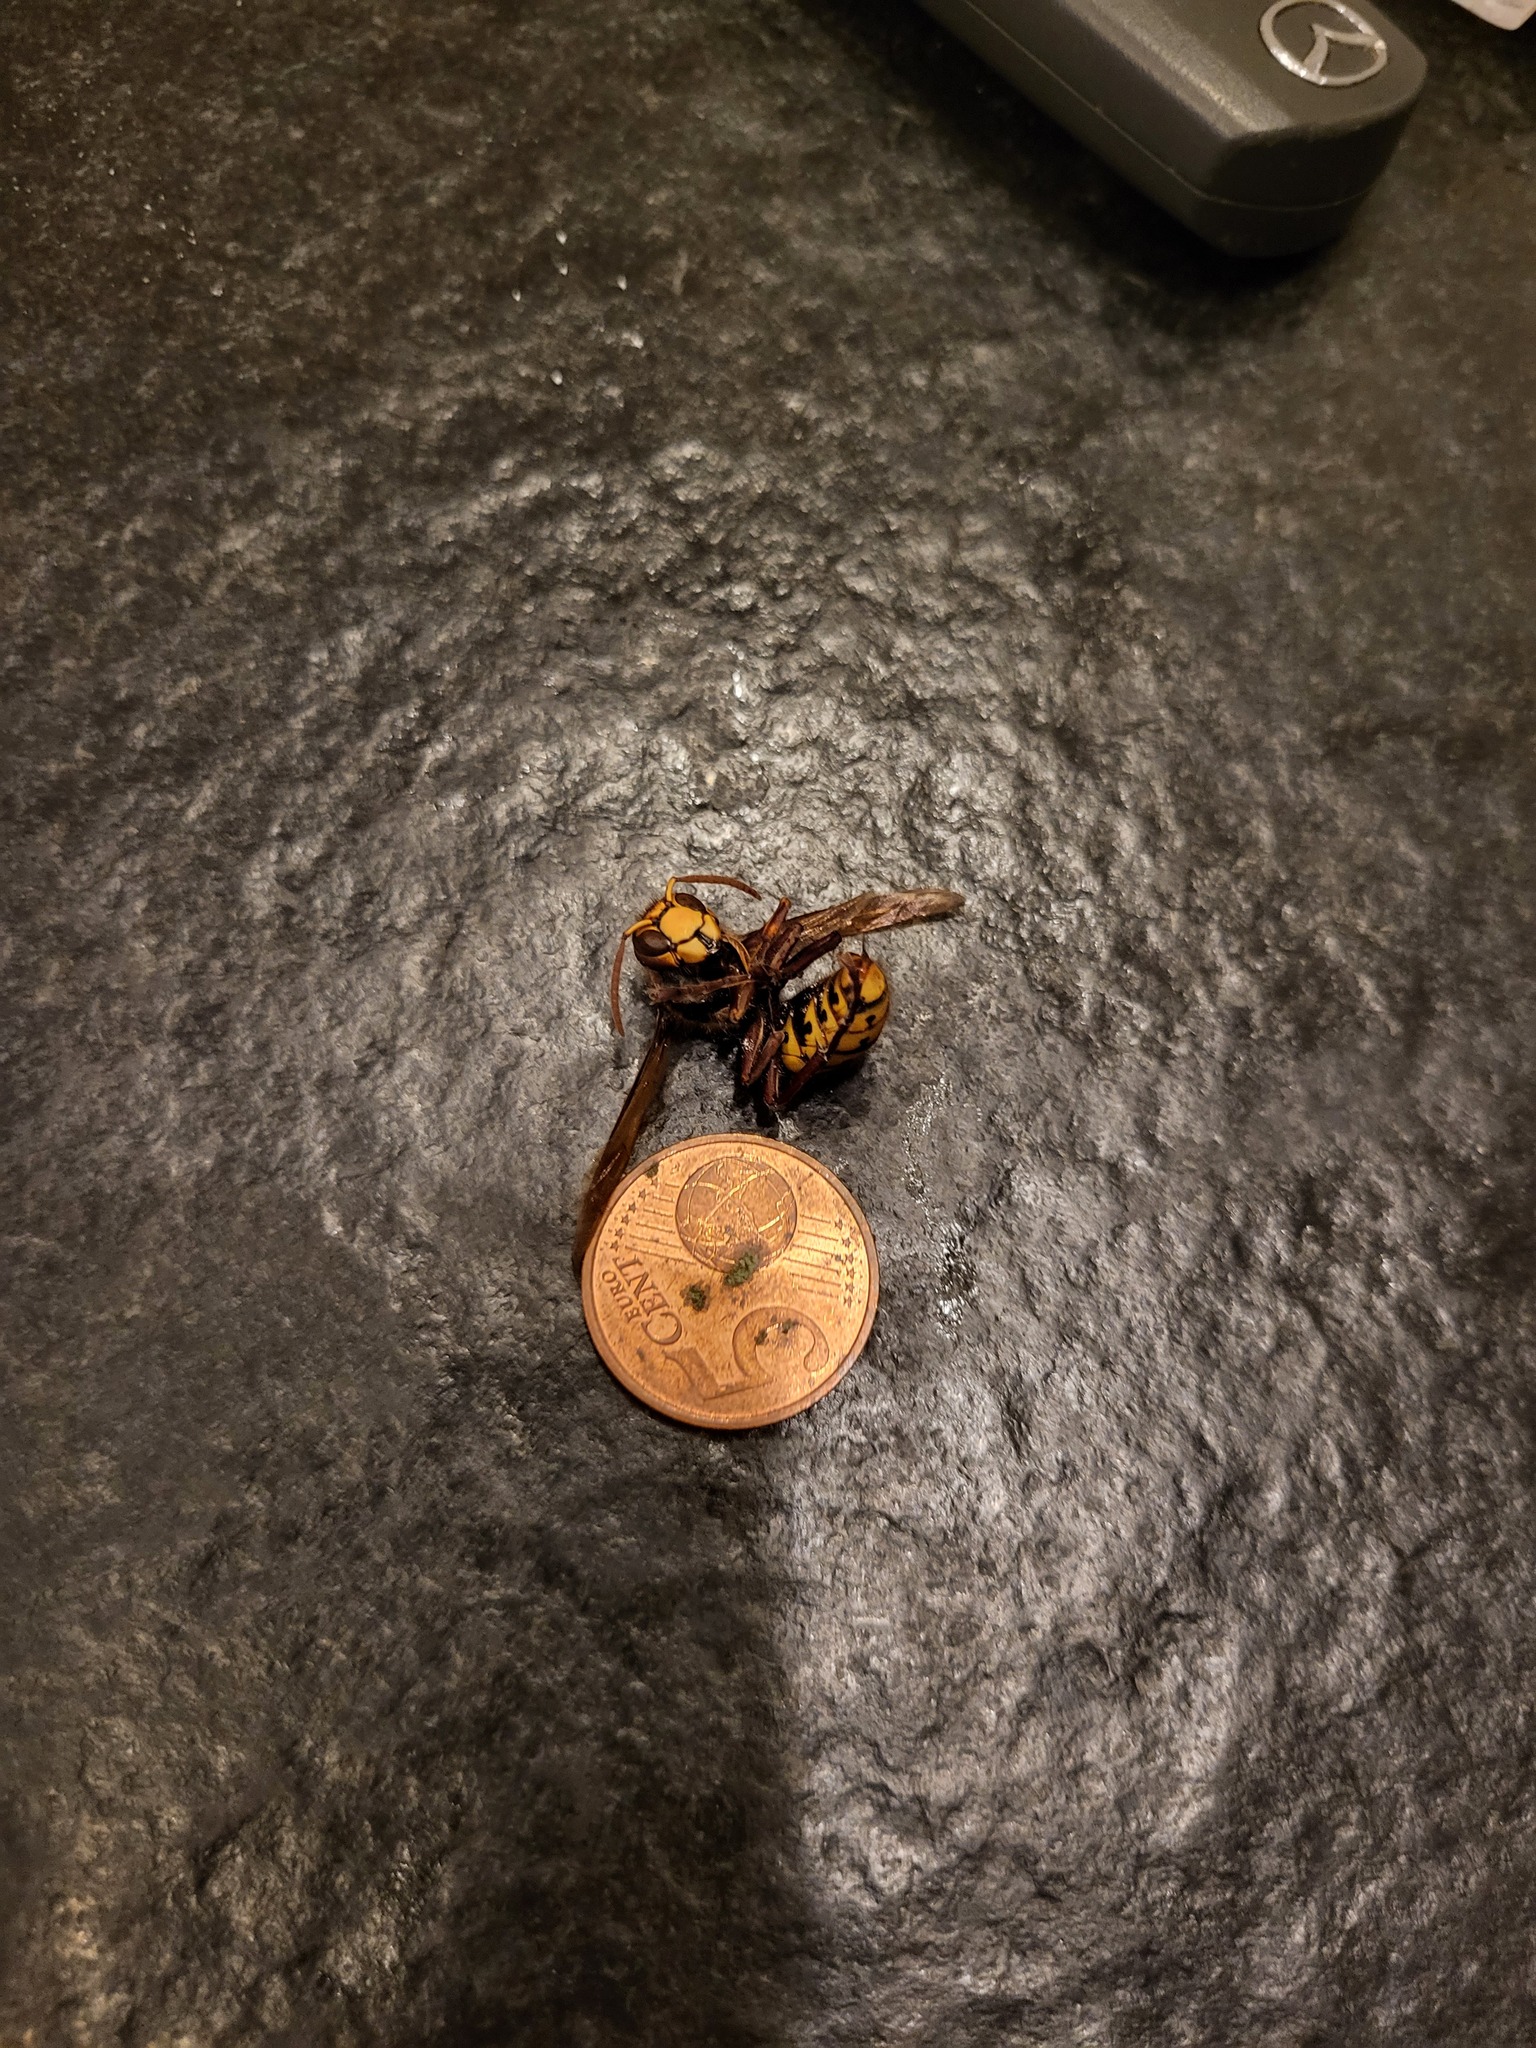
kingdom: Animalia
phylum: Arthropoda
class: Insecta
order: Hymenoptera
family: Vespidae
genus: Vespa
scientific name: Vespa crabro
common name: Hornet
